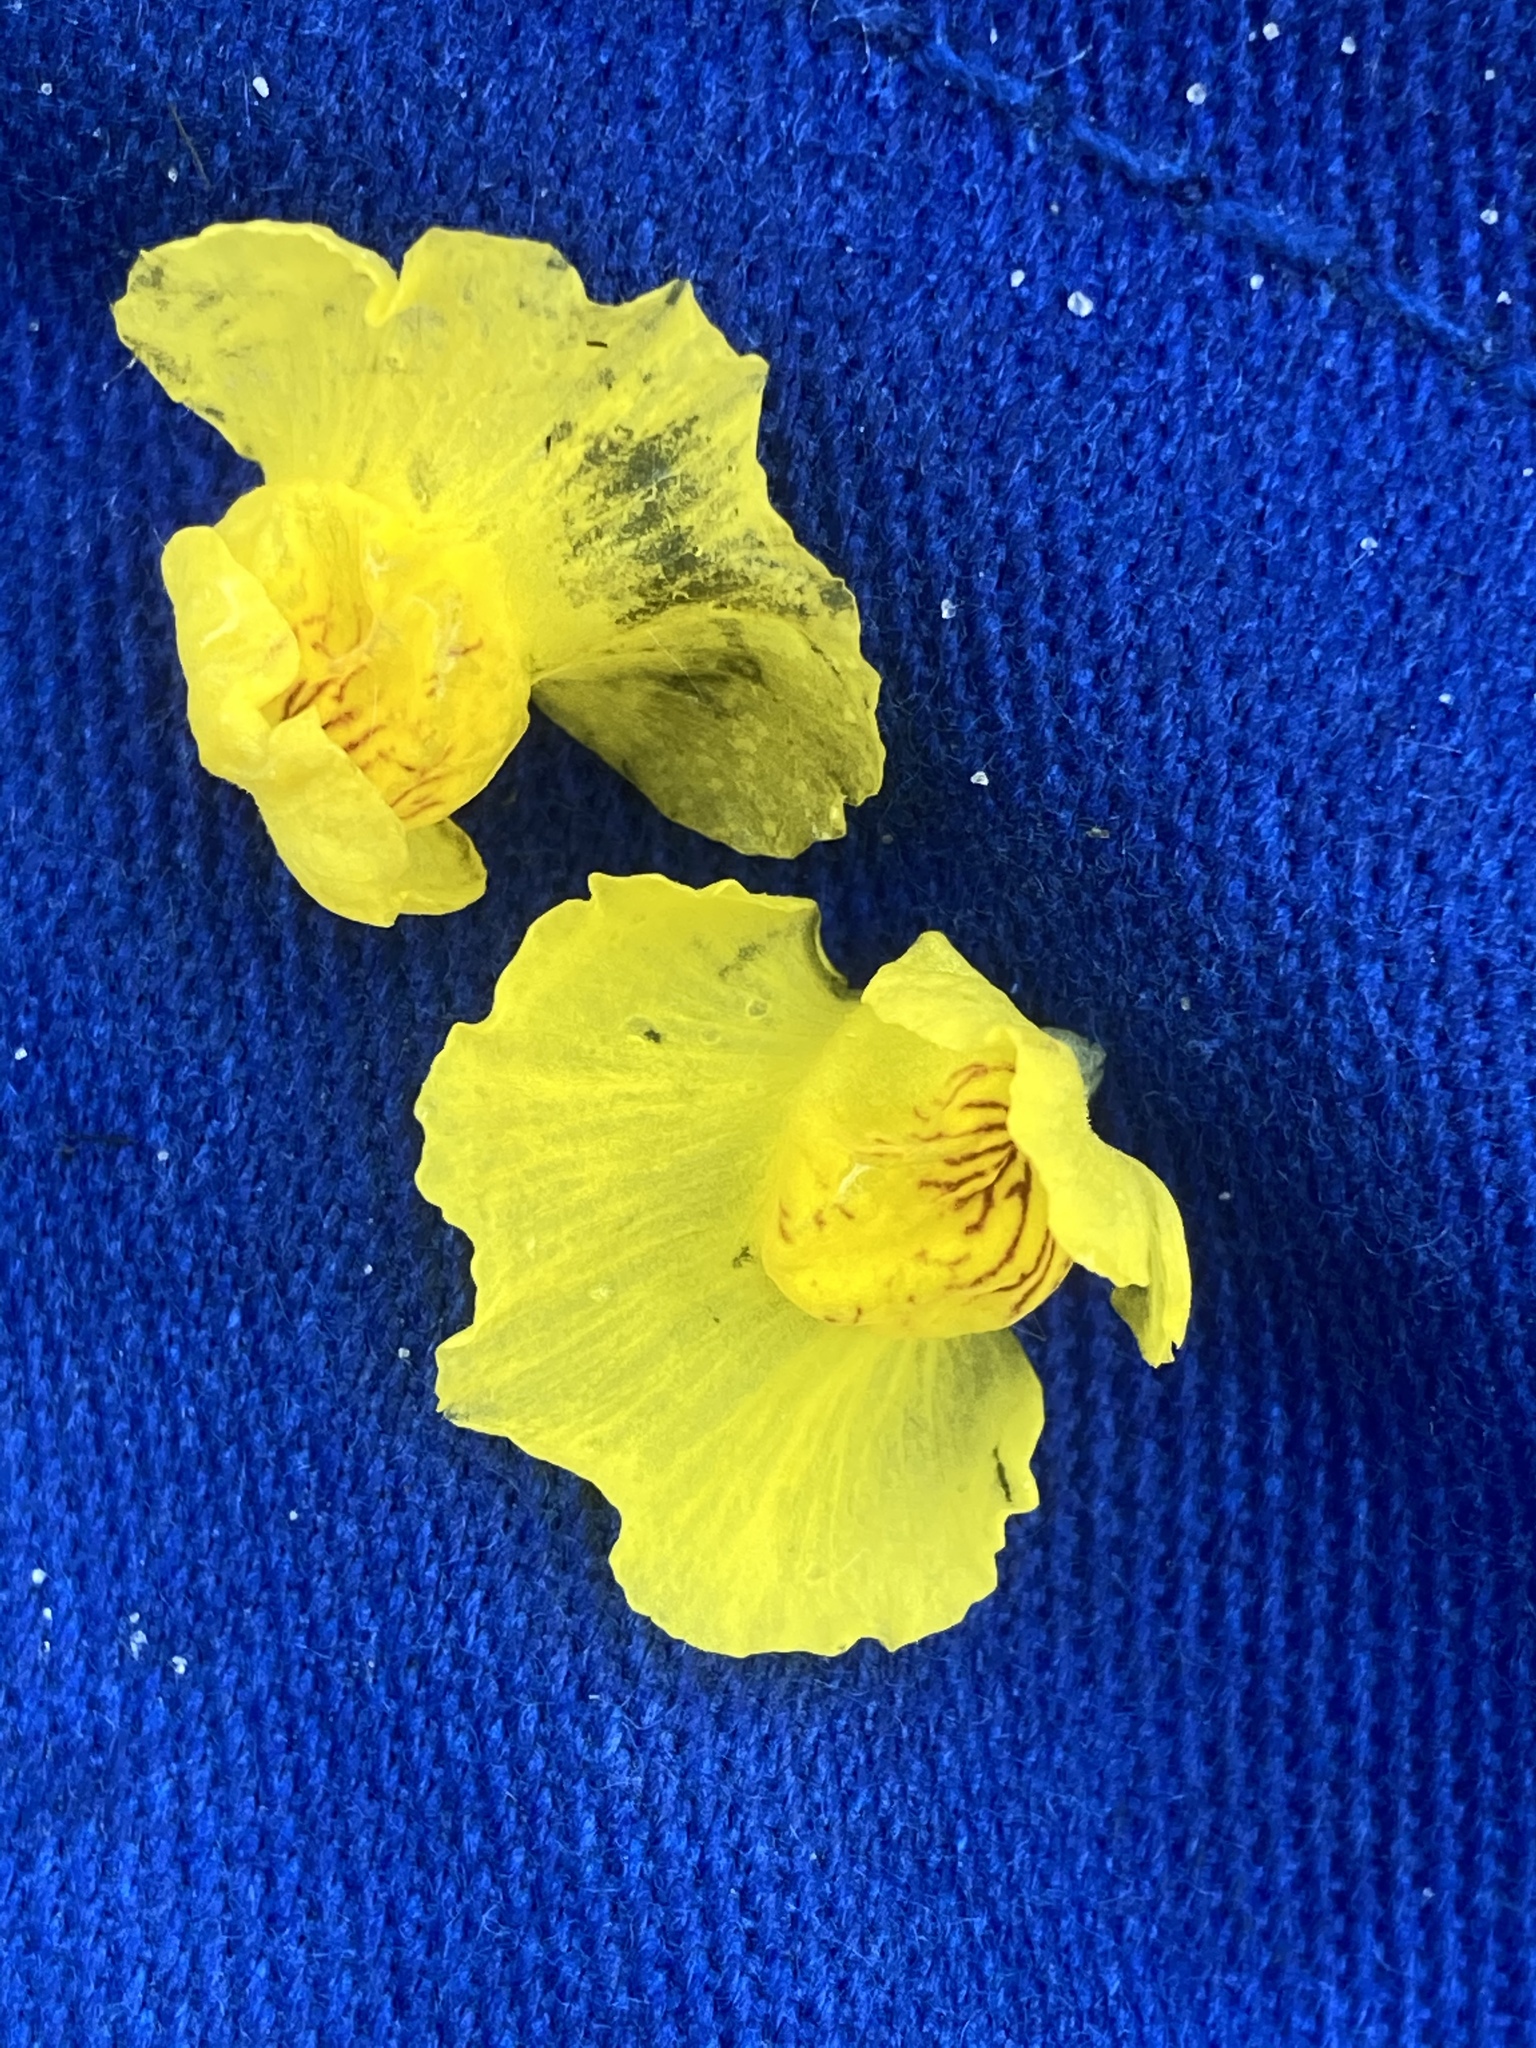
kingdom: Plantae
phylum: Tracheophyta
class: Magnoliopsida
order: Lamiales
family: Lentibulariaceae
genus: Utricularia
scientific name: Utricularia australis
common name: Bladderwort
